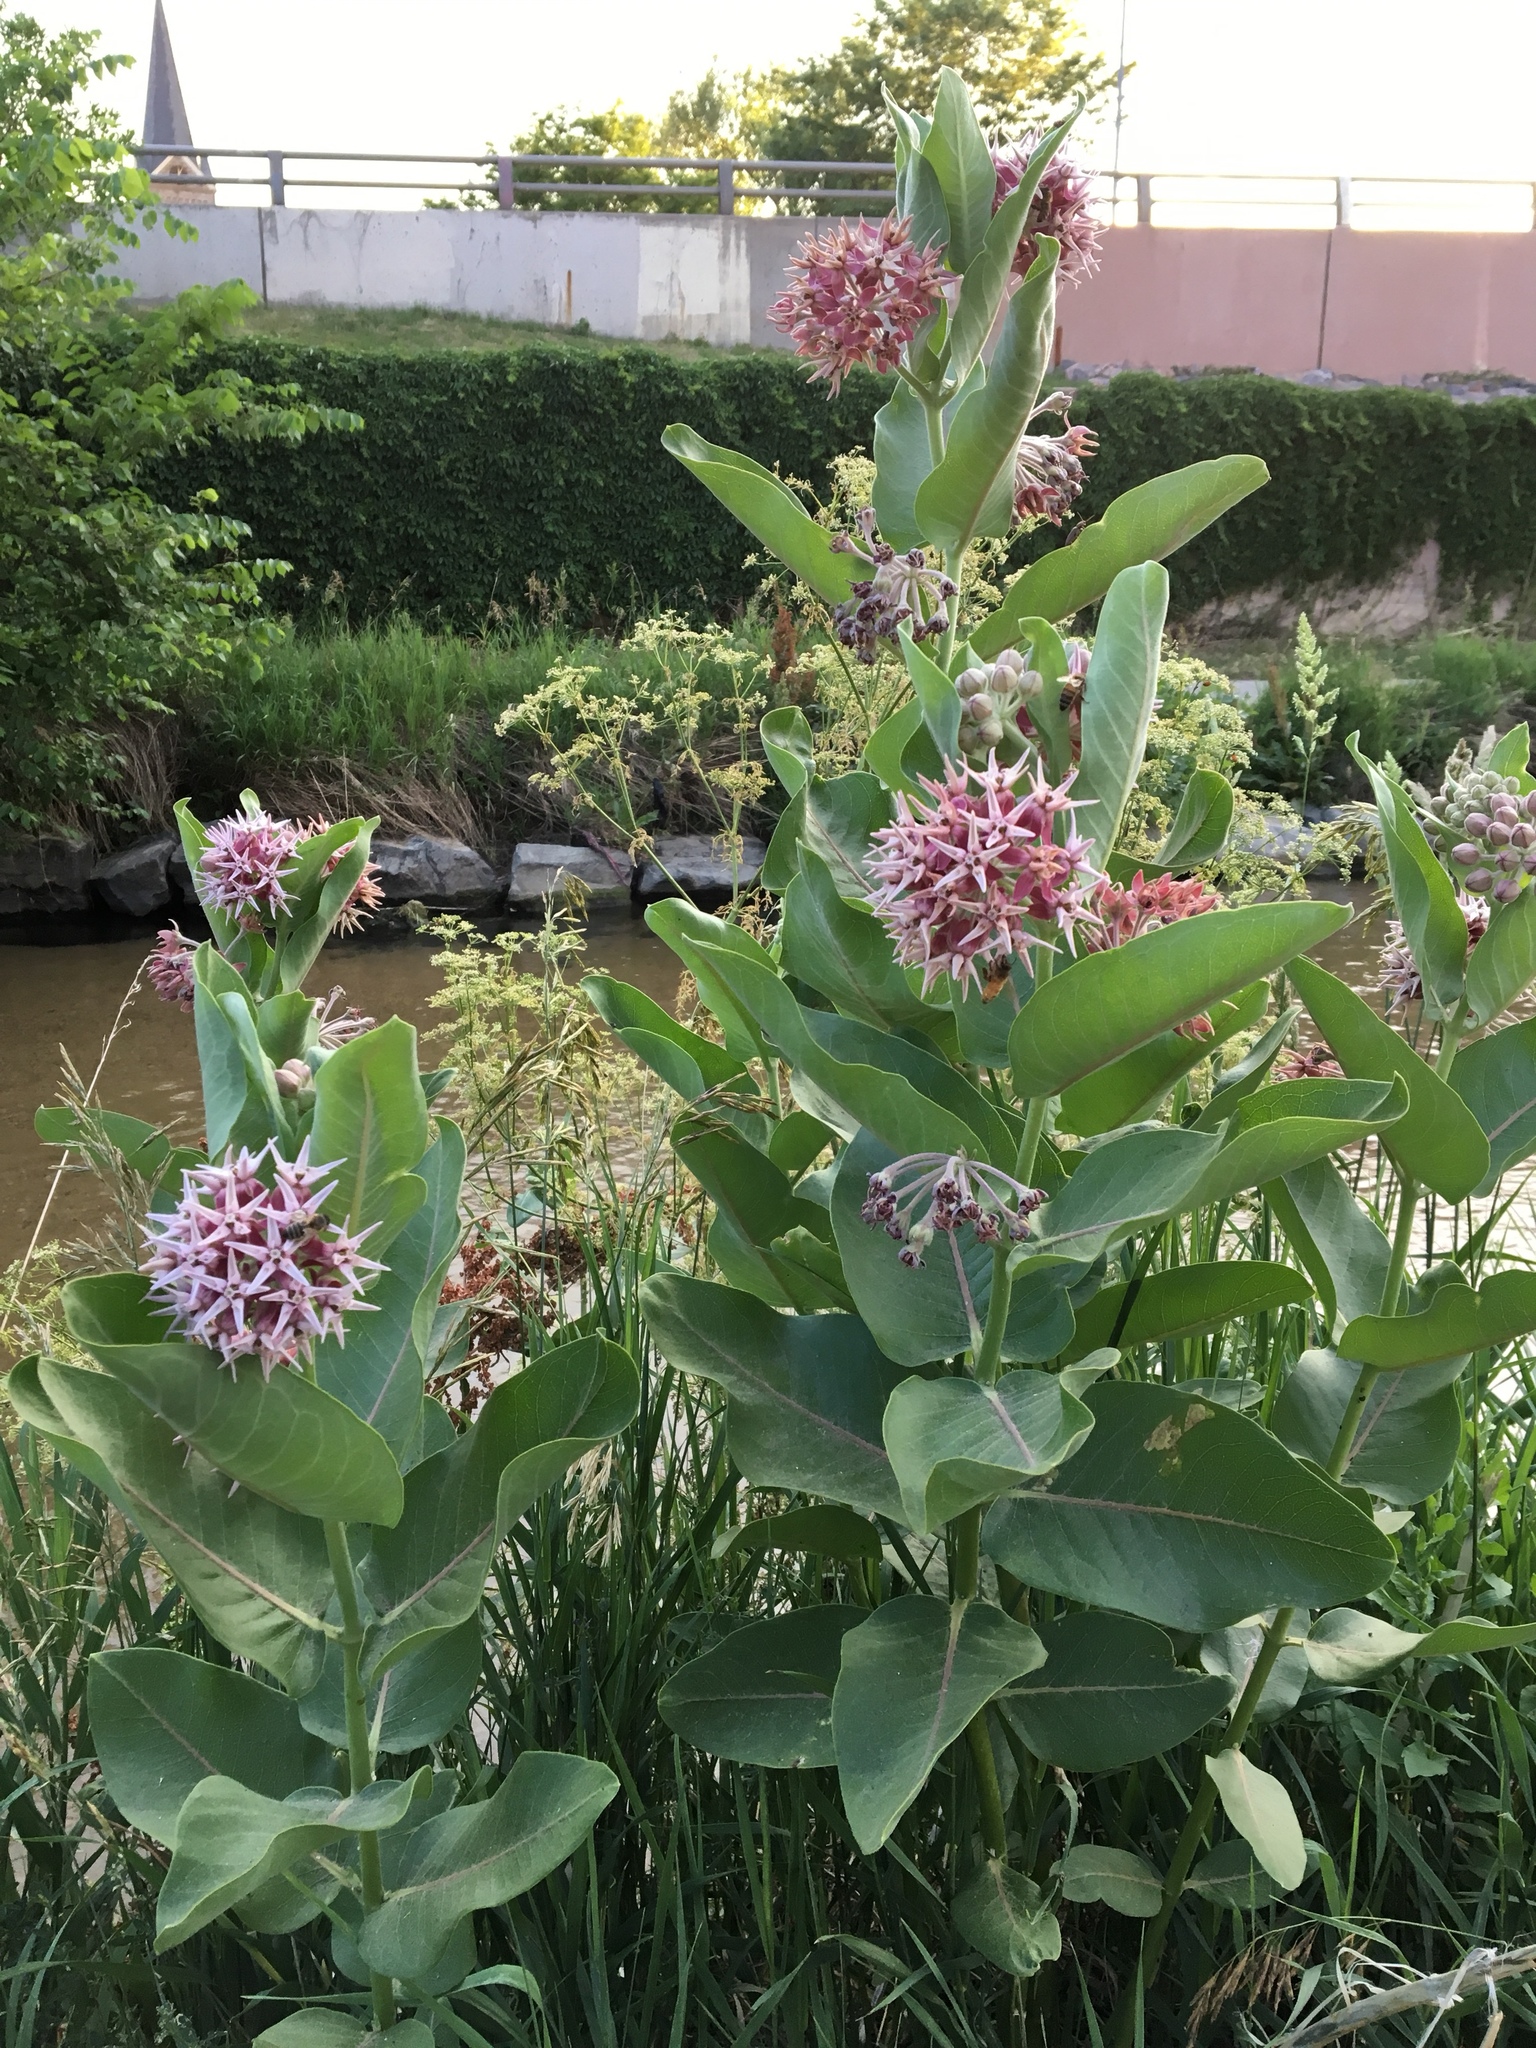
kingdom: Plantae
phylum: Tracheophyta
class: Magnoliopsida
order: Gentianales
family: Apocynaceae
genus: Asclepias
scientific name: Asclepias speciosa
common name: Showy milkweed
